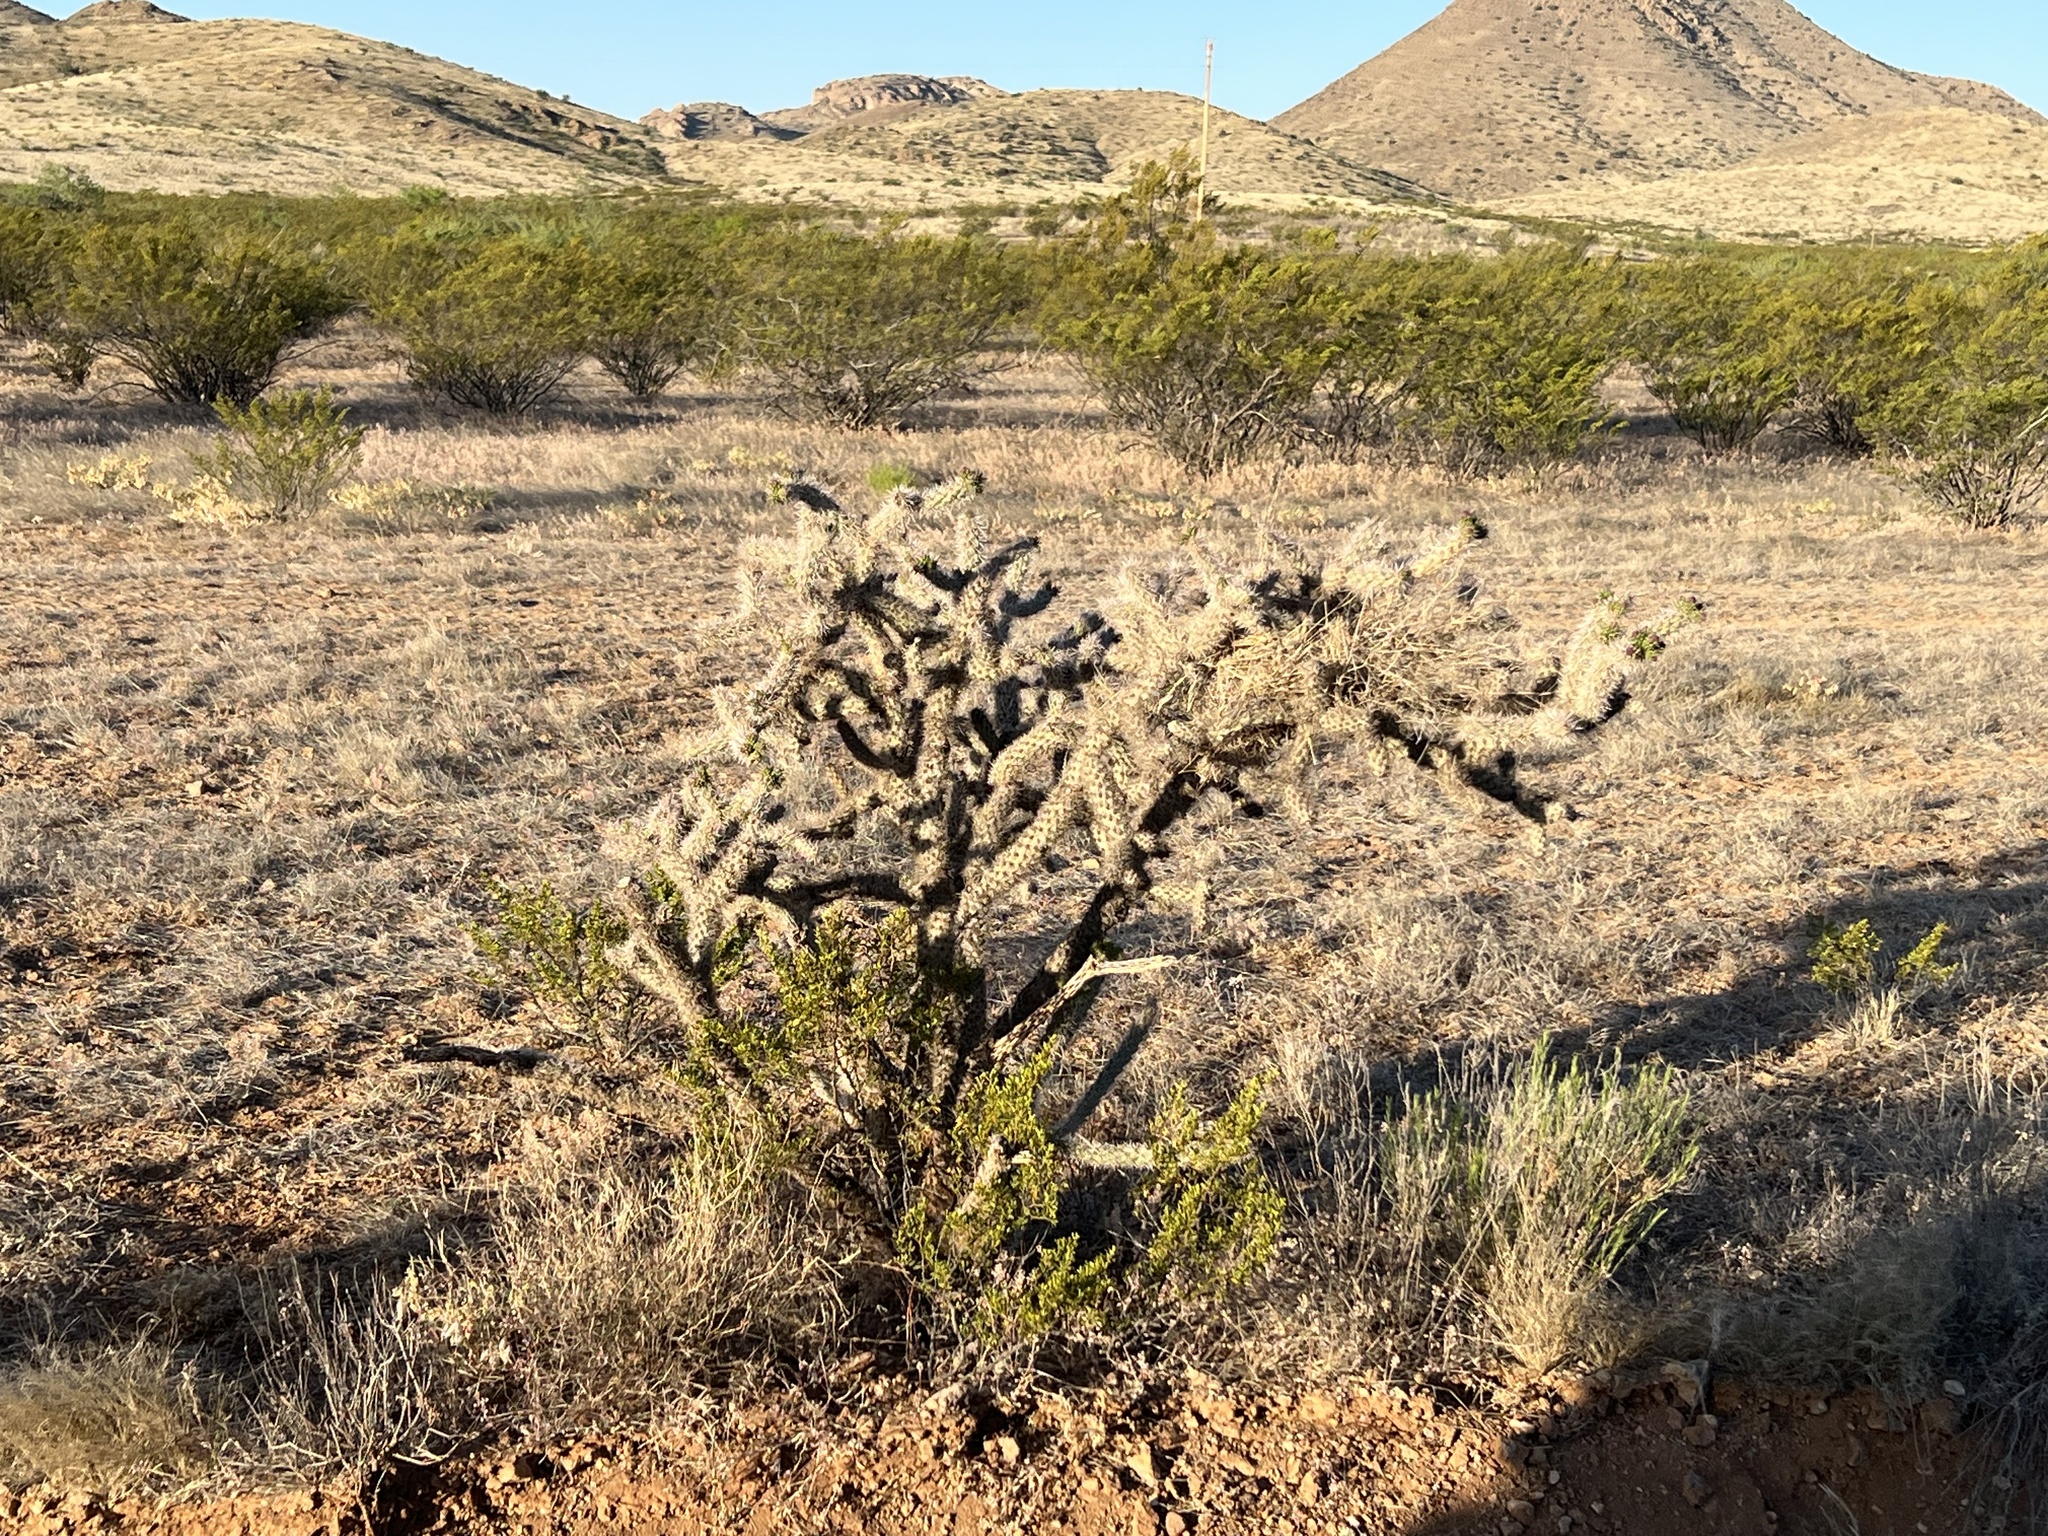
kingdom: Plantae
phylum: Tracheophyta
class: Magnoliopsida
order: Caryophyllales
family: Cactaceae
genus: Cylindropuntia
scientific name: Cylindropuntia imbricata
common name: Candelabrum cactus
